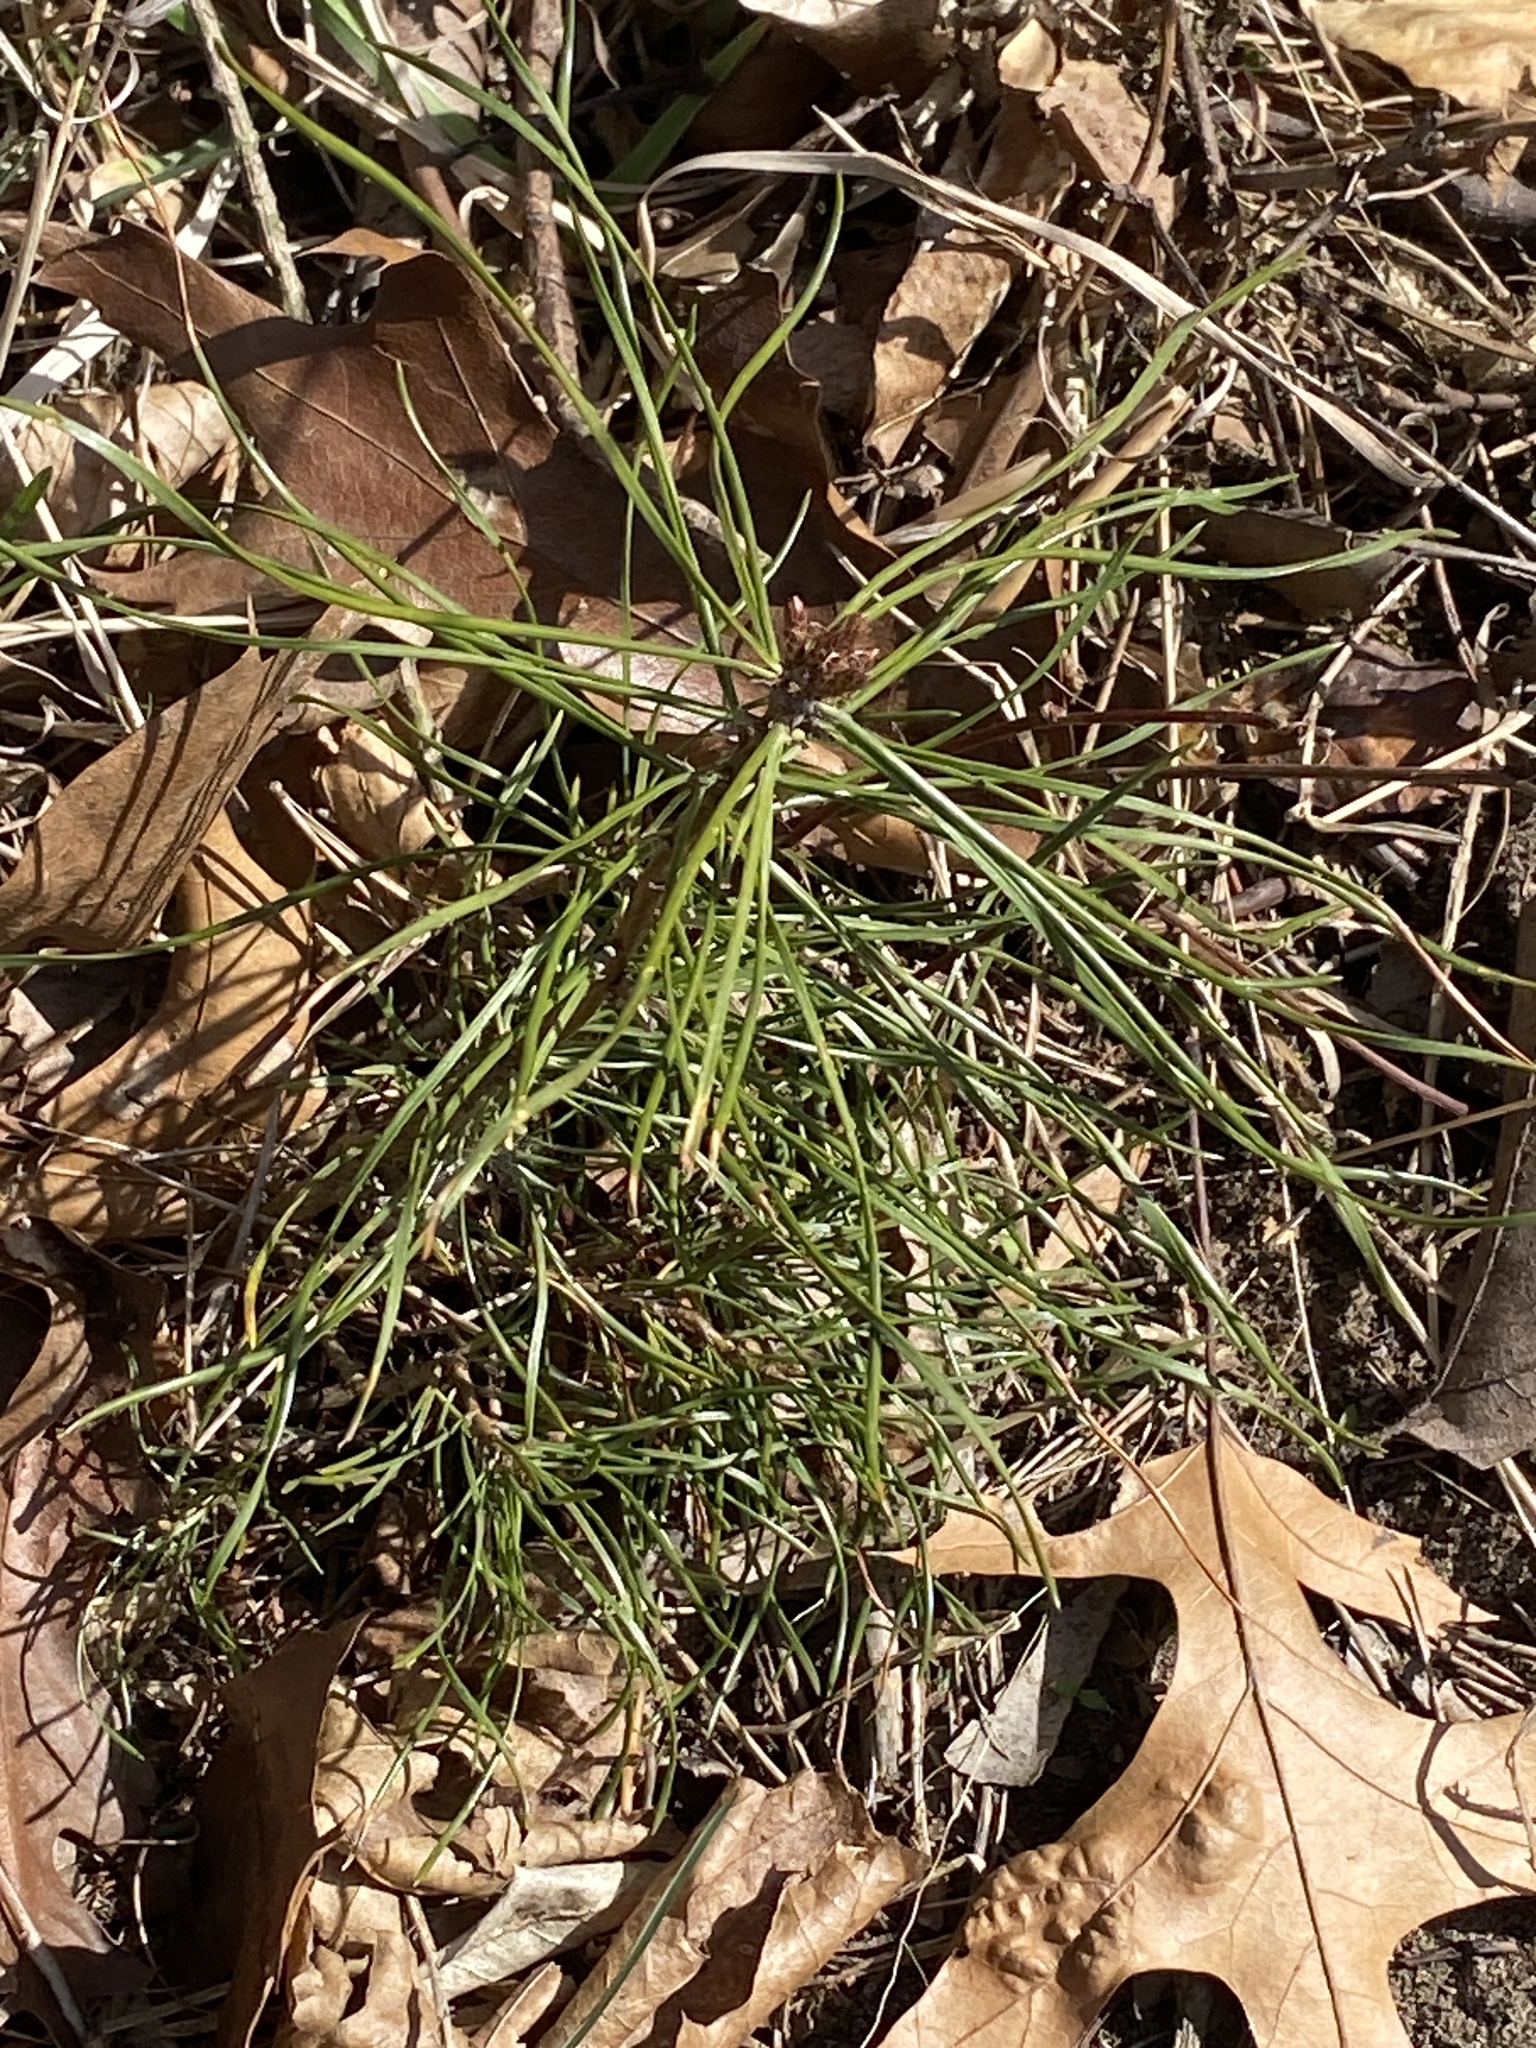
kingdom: Plantae
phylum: Tracheophyta
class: Pinopsida
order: Pinales
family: Pinaceae
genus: Pinus
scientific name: Pinus strobus
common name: Weymouth pine
